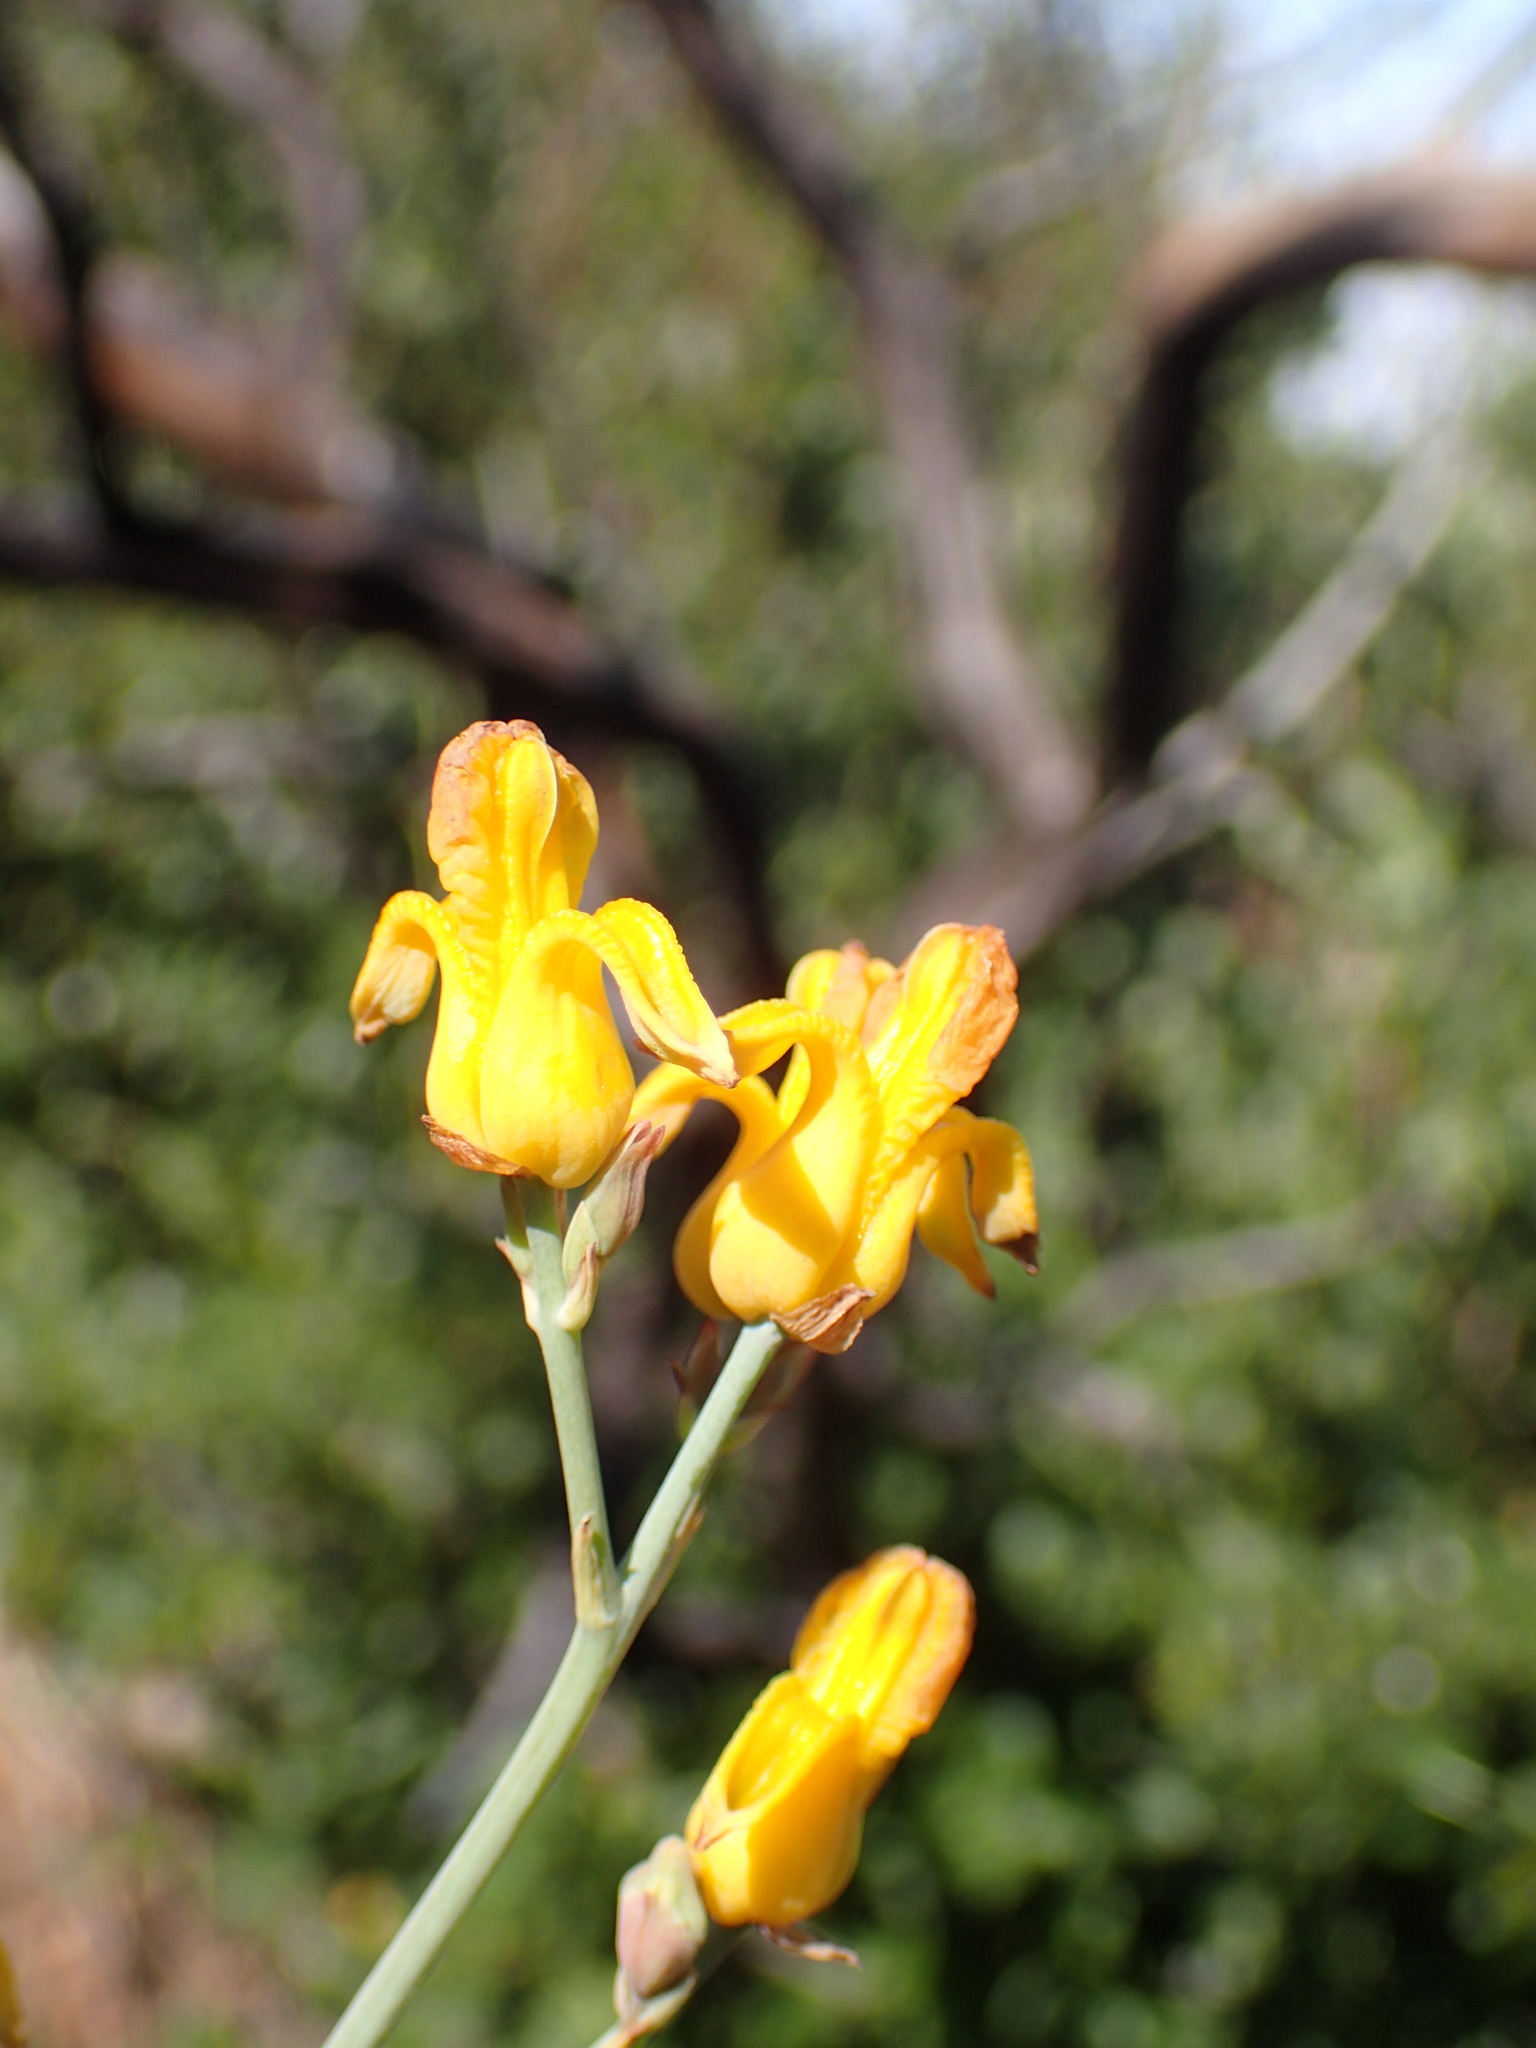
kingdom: Plantae
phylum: Tracheophyta
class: Magnoliopsida
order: Ranunculales
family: Papaveraceae
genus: Ehrendorferia
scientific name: Ehrendorferia chrysantha
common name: Golden eardrops
